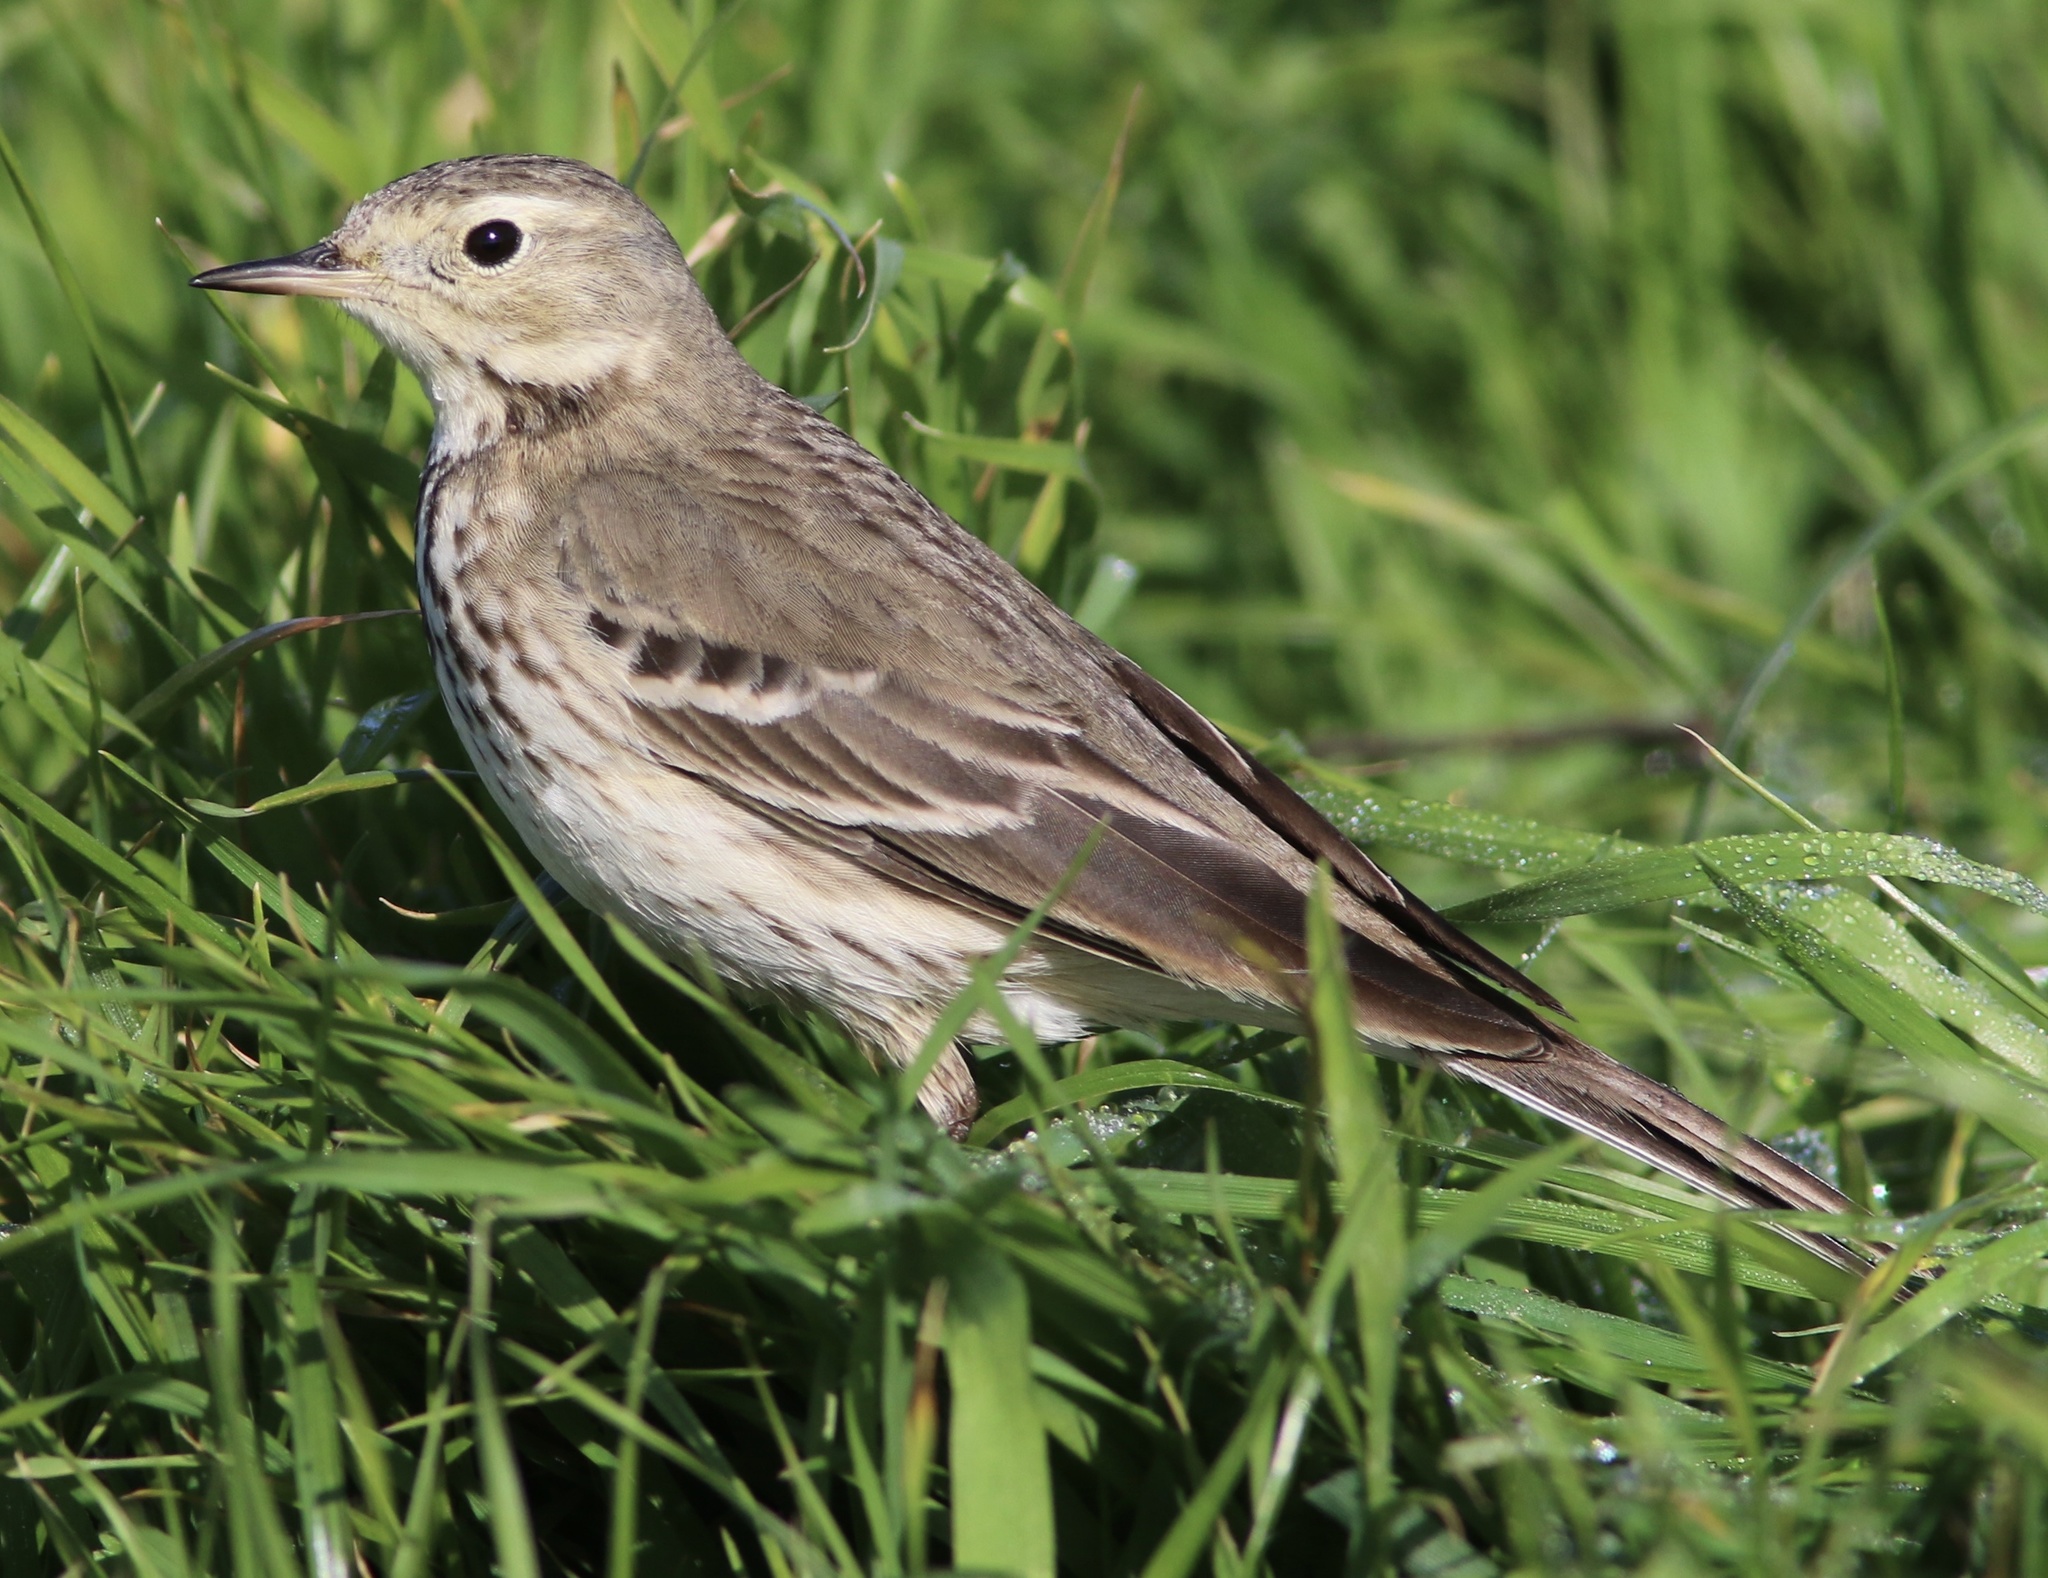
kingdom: Animalia
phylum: Chordata
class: Aves
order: Passeriformes
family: Motacillidae
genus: Anthus
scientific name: Anthus rubescens
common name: Buff-bellied pipit
